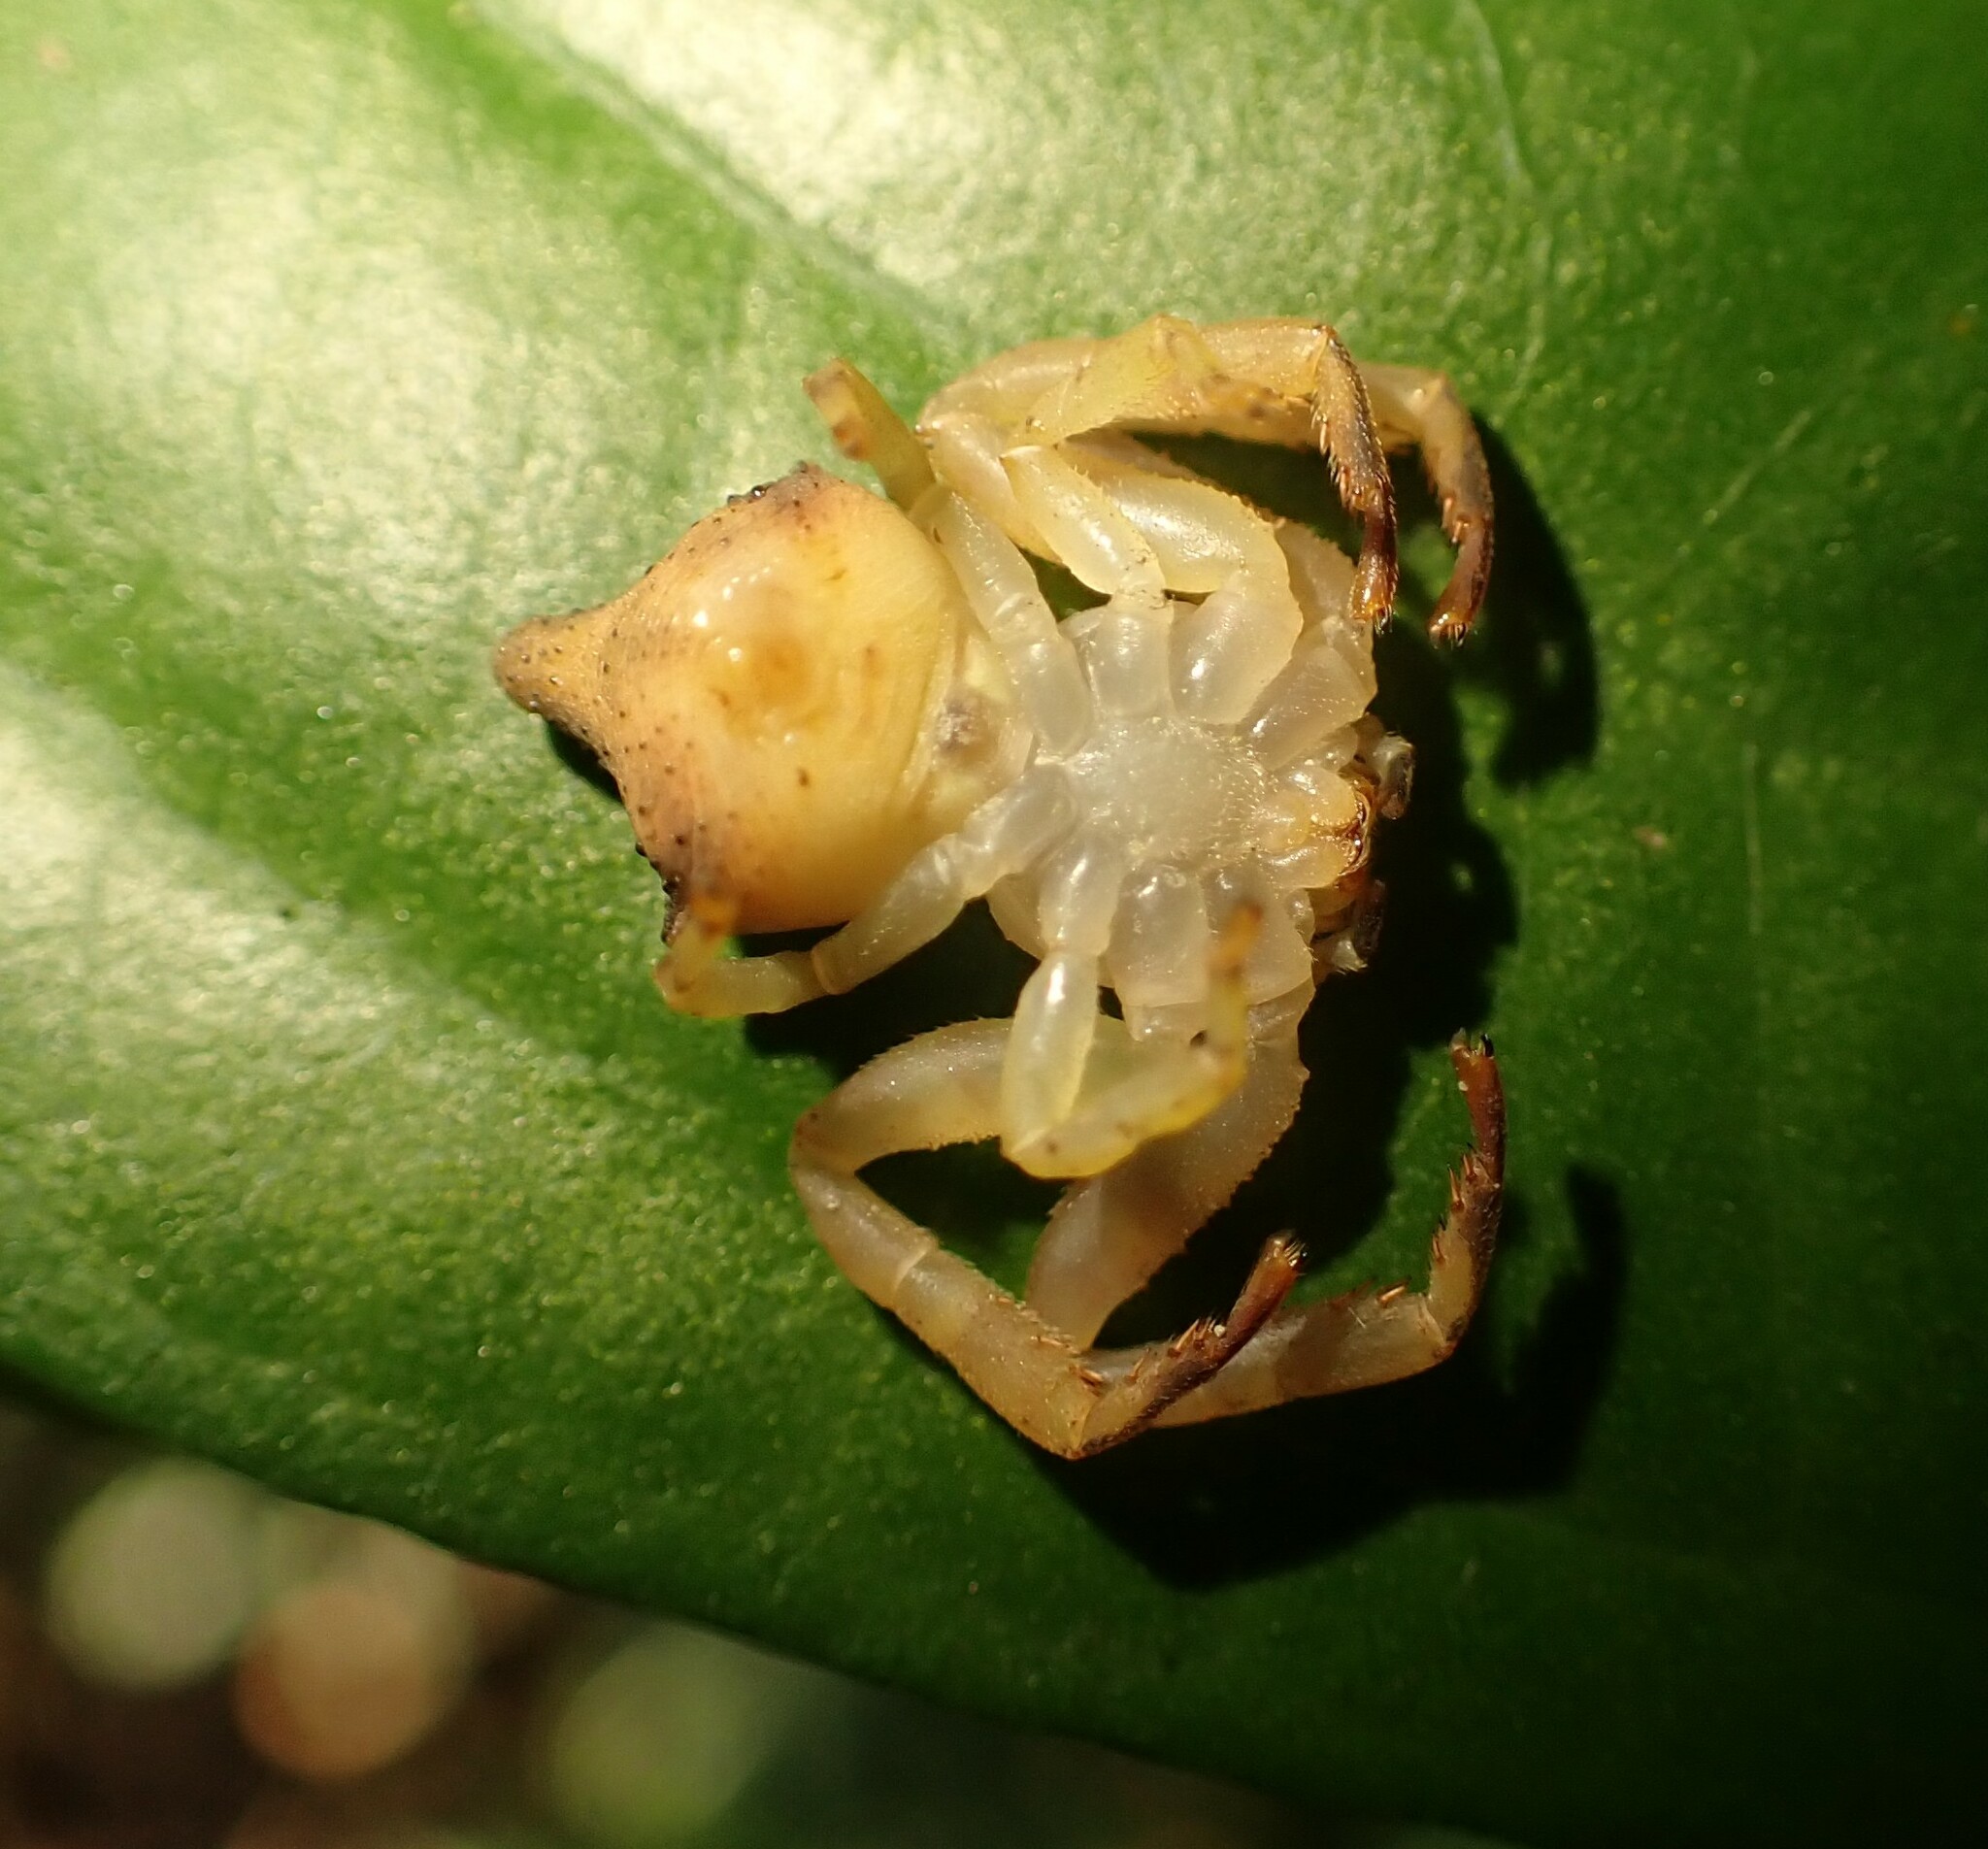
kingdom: Animalia
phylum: Arthropoda
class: Arachnida
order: Araneae
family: Thomisidae
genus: Epicadus
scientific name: Epicadus taczanowskii
